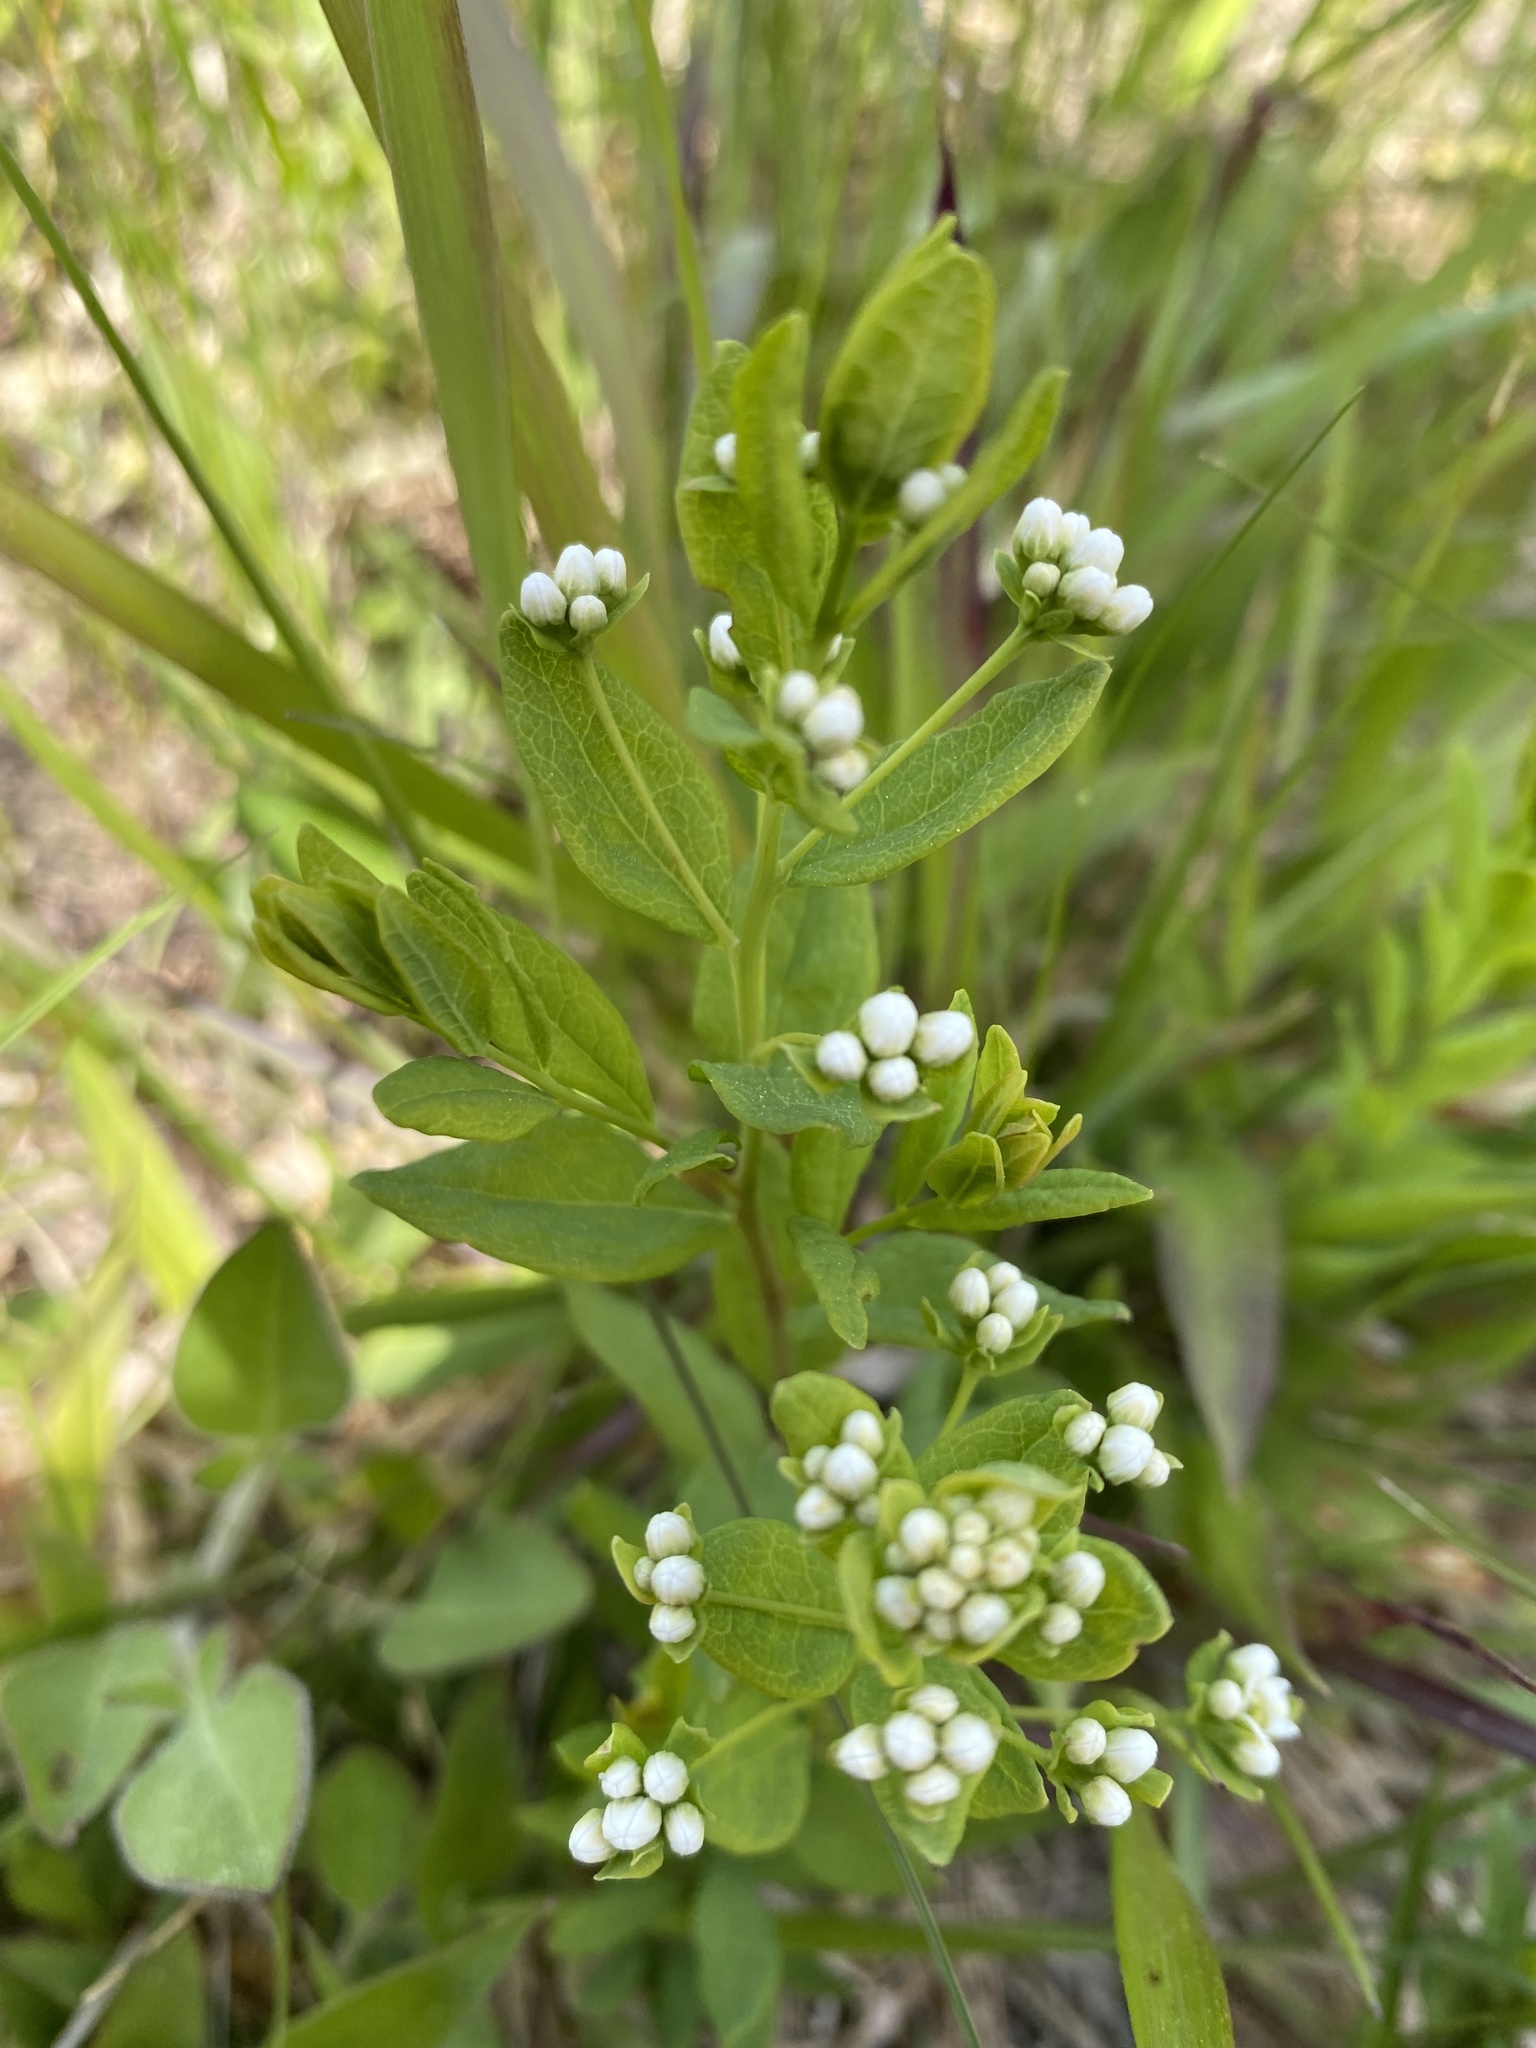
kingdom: Plantae
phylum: Tracheophyta
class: Magnoliopsida
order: Santalales
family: Comandraceae
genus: Comandra
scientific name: Comandra umbellata
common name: Bastard toadflax
